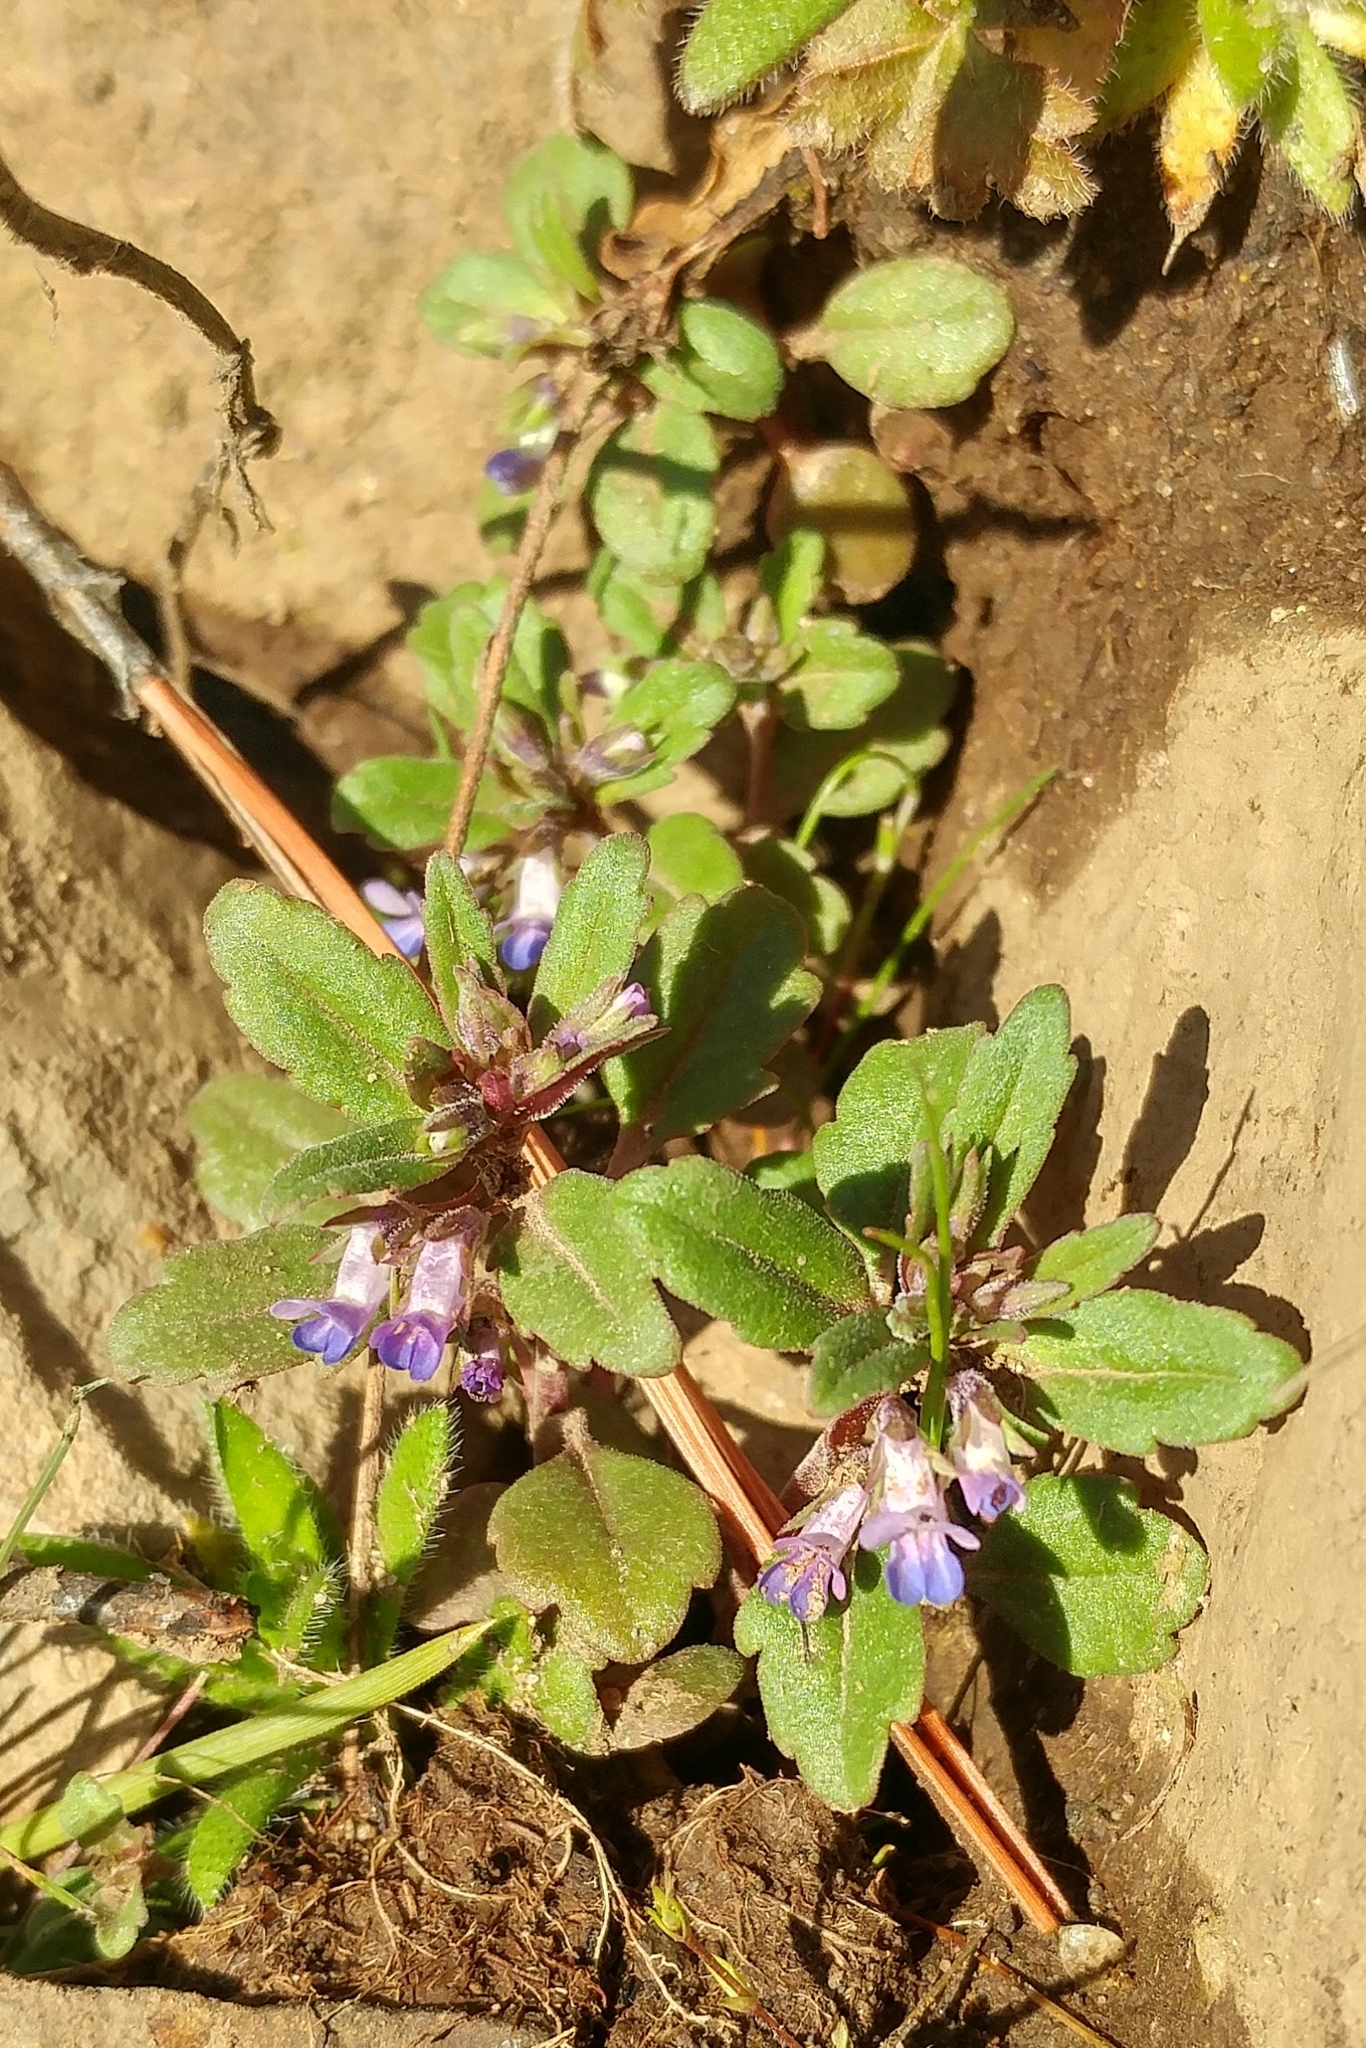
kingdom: Plantae
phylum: Tracheophyta
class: Magnoliopsida
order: Lamiales
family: Plantaginaceae
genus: Collinsia
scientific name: Collinsia parviflora
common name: Blue-lips
